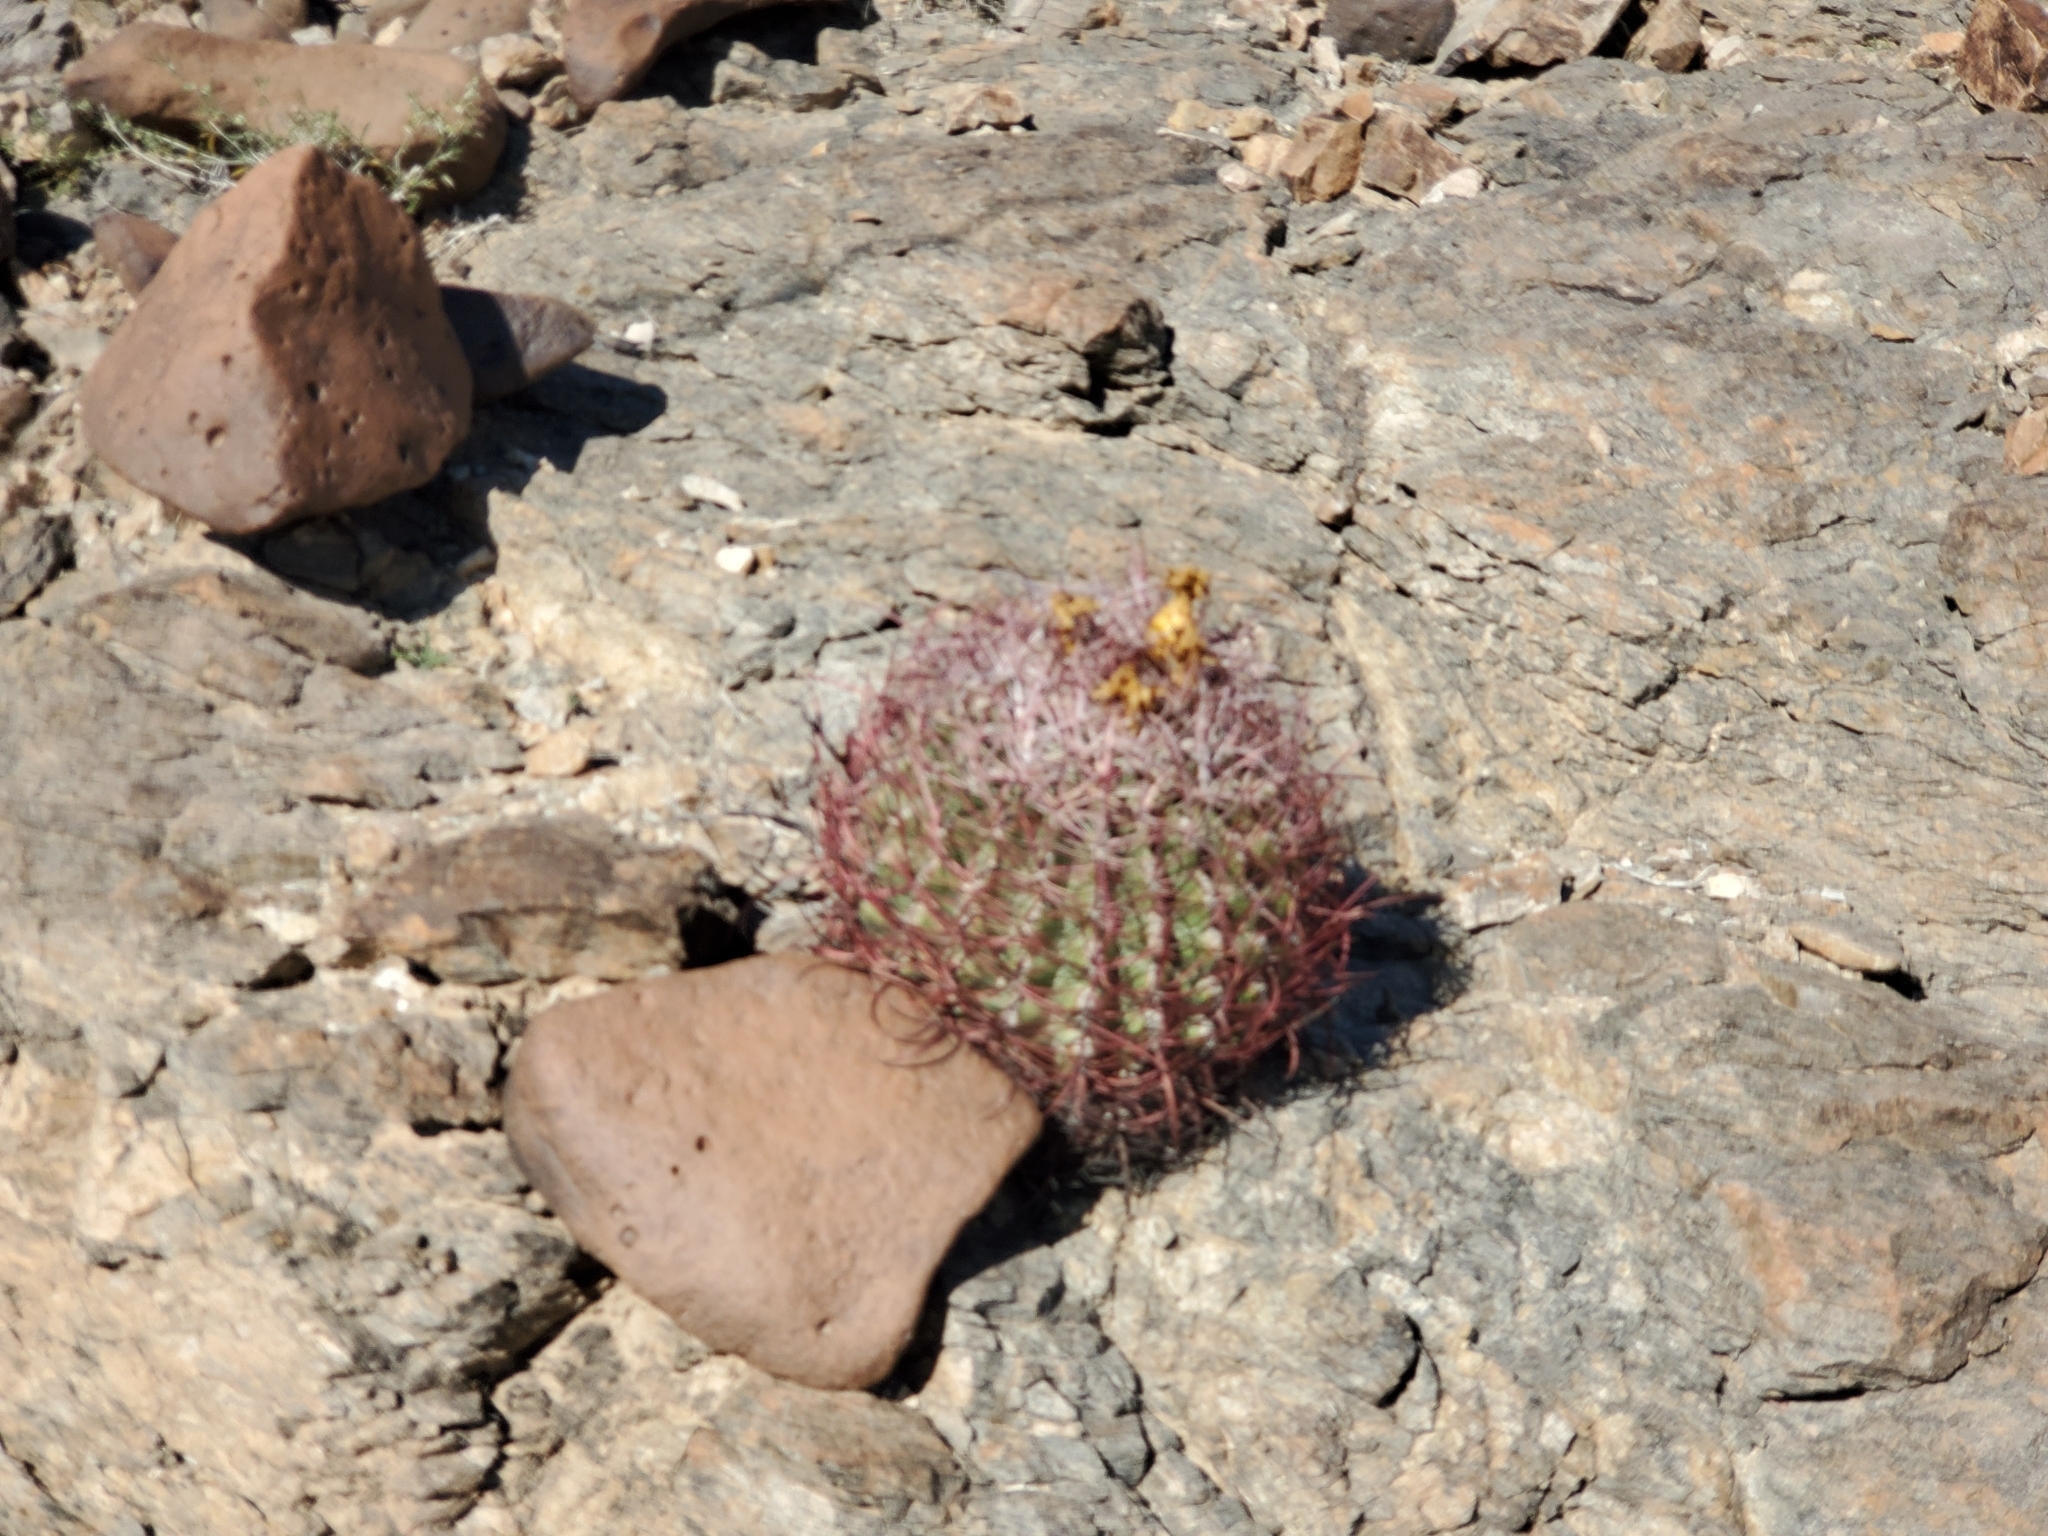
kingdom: Plantae
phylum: Tracheophyta
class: Magnoliopsida
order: Caryophyllales
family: Cactaceae
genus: Ferocactus
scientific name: Ferocactus cylindraceus
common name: California barrel cactus
